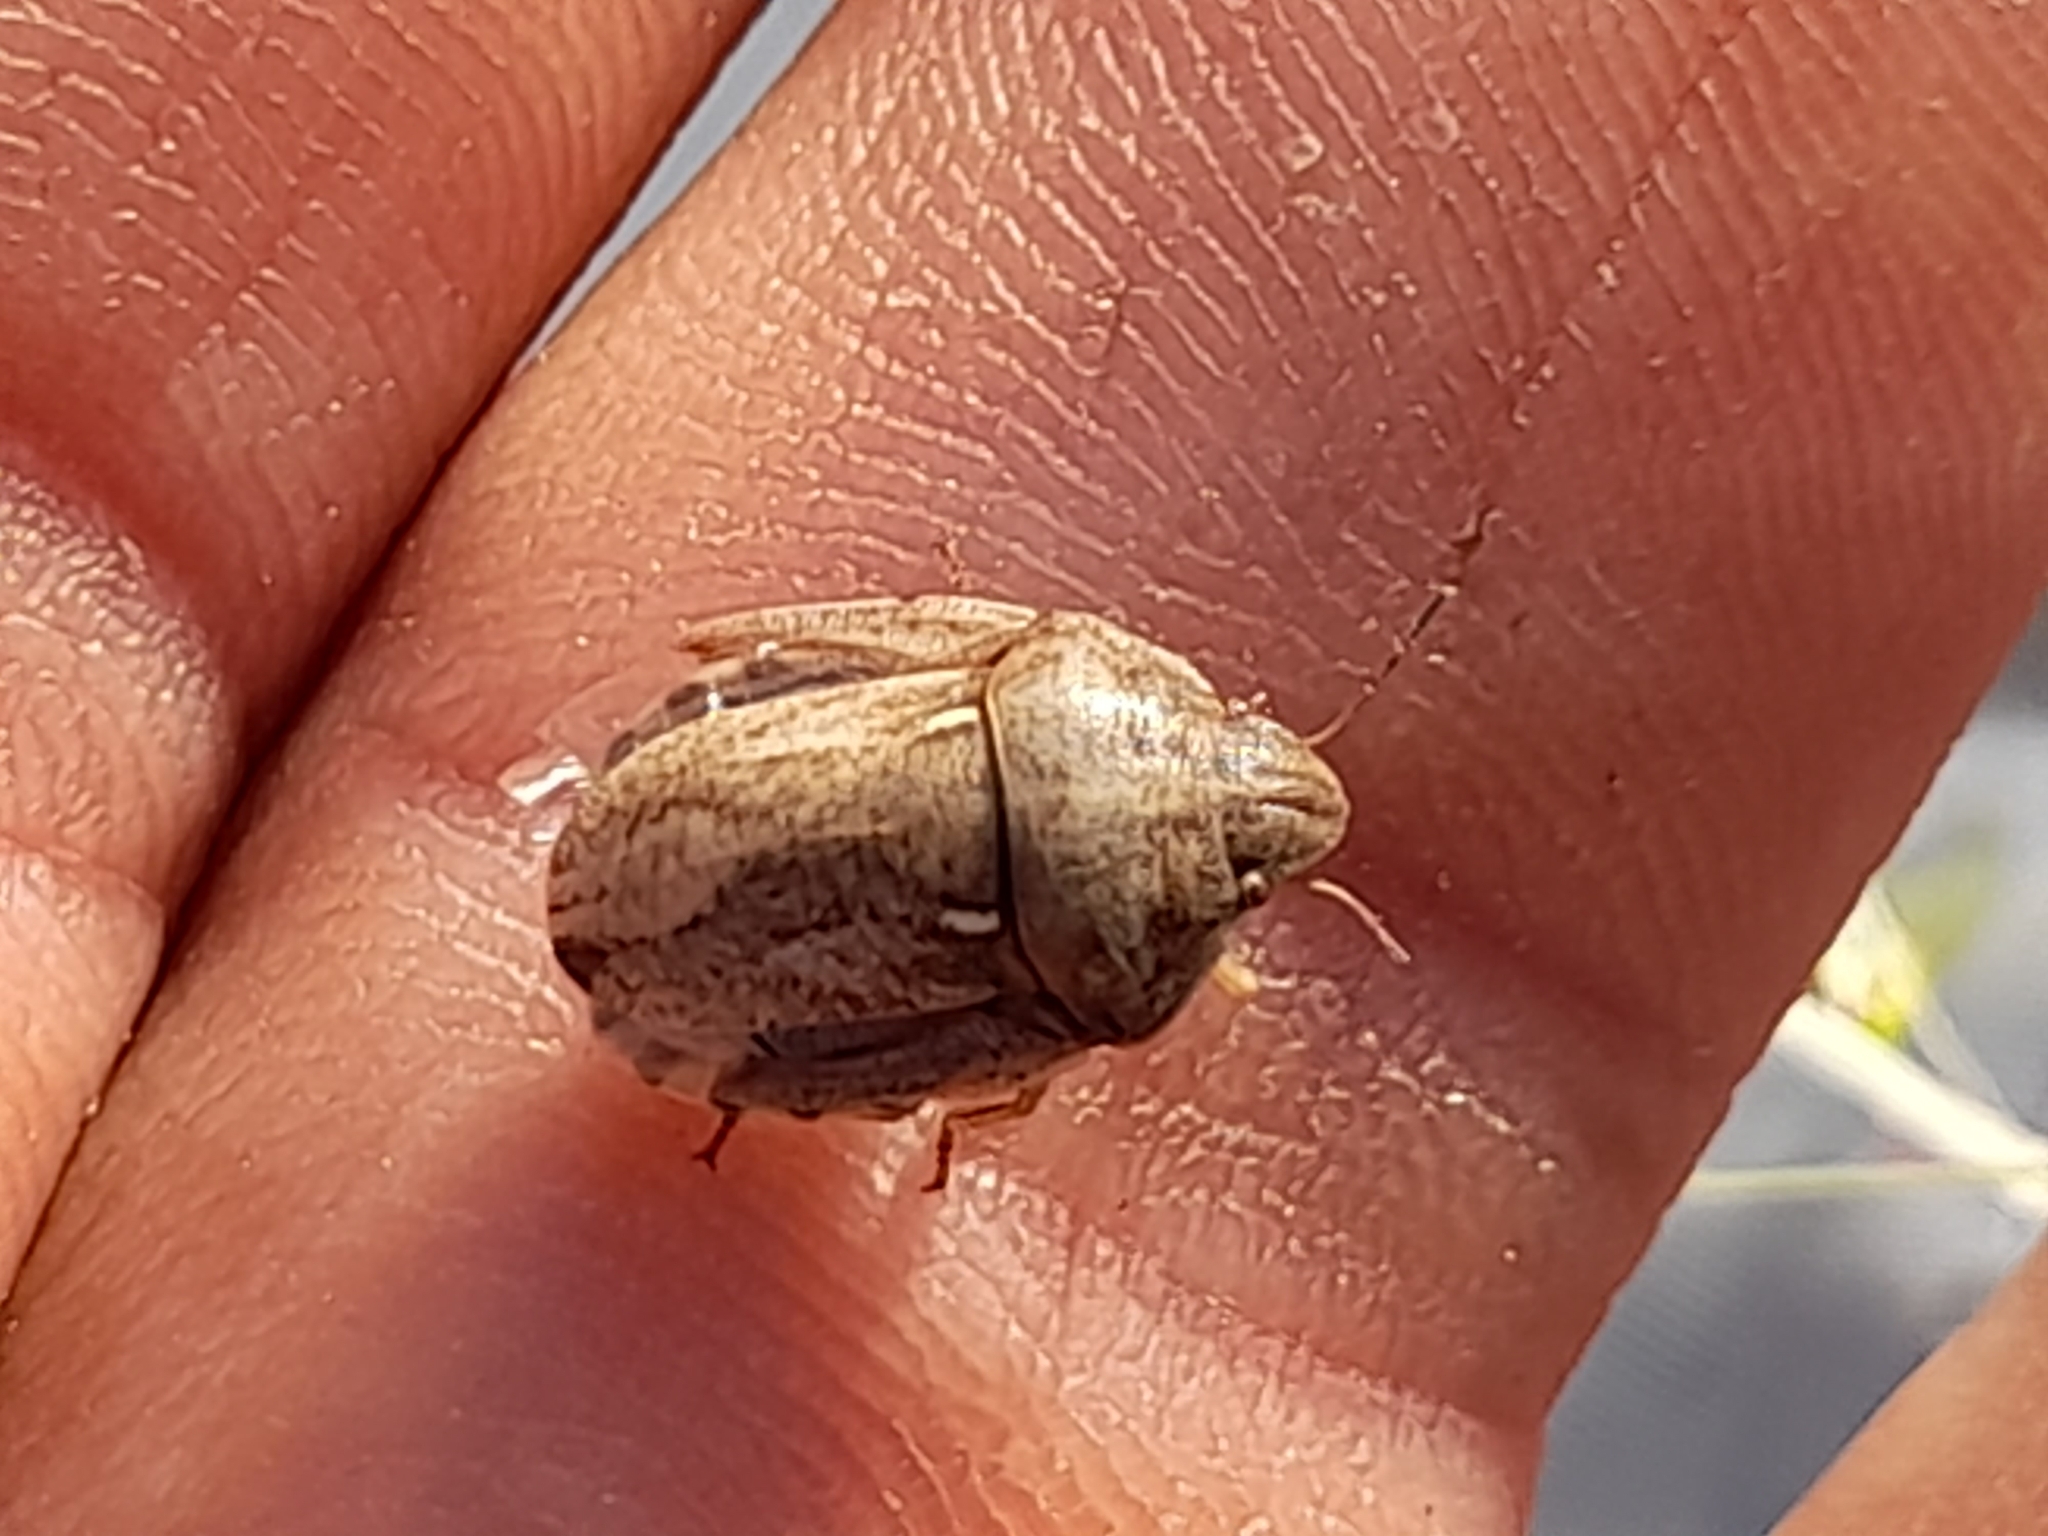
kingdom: Animalia
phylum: Arthropoda
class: Insecta
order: Hemiptera
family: Scutelleridae
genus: Eurygaster
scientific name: Eurygaster maura
